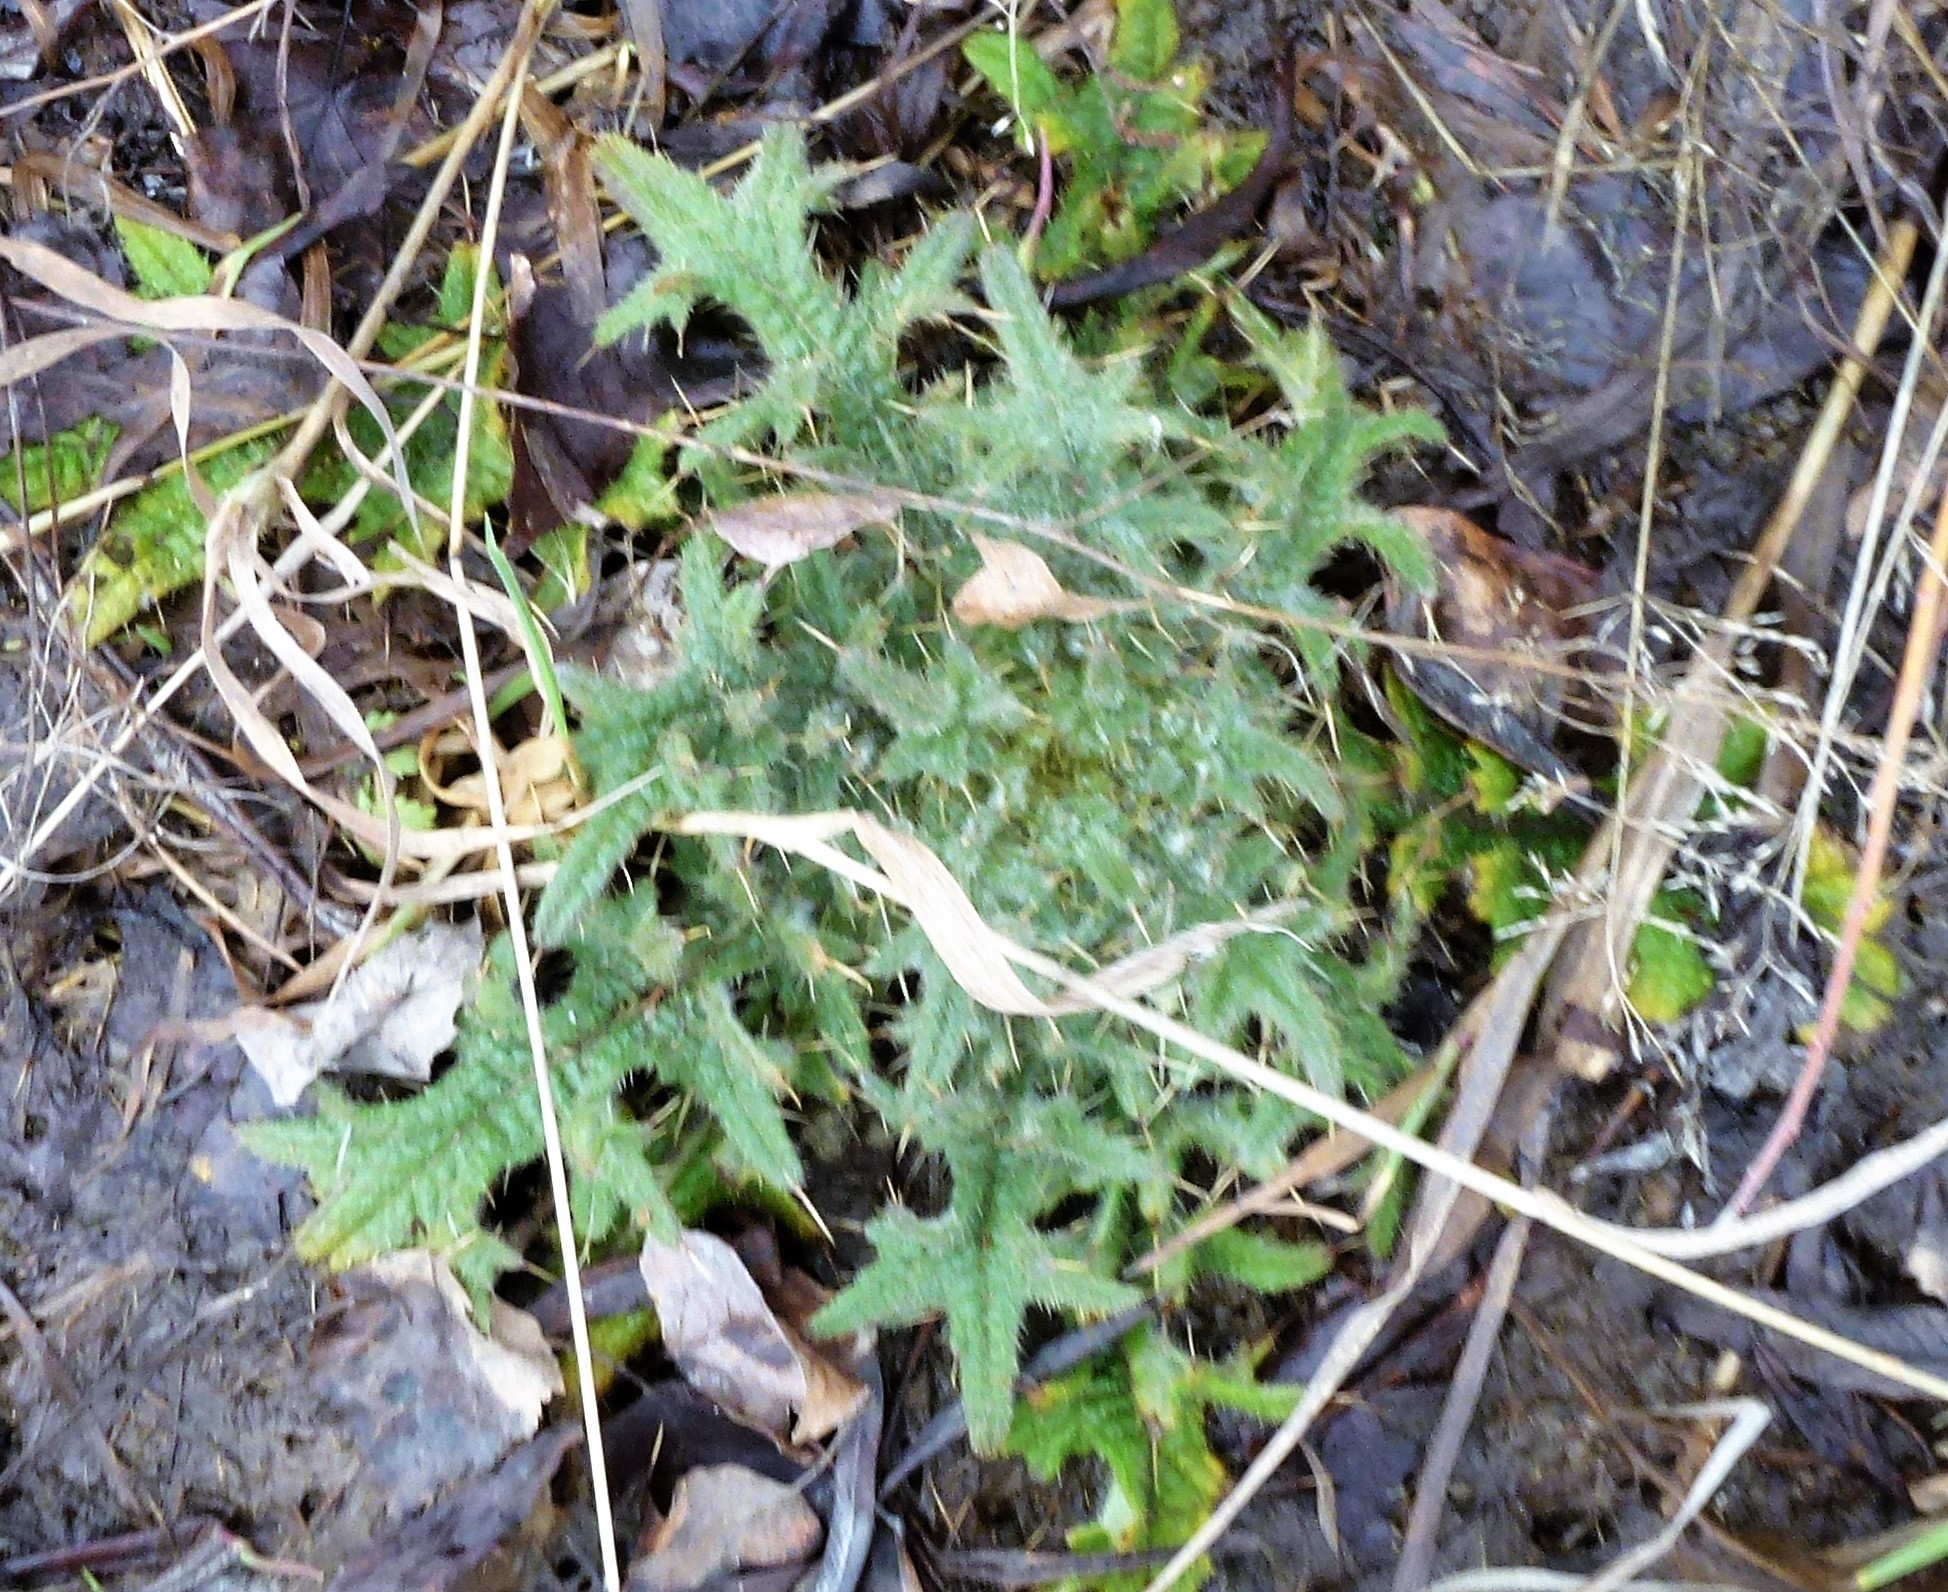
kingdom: Plantae
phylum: Tracheophyta
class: Magnoliopsida
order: Asterales
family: Asteraceae
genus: Cirsium
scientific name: Cirsium vulgare
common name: Bull thistle
